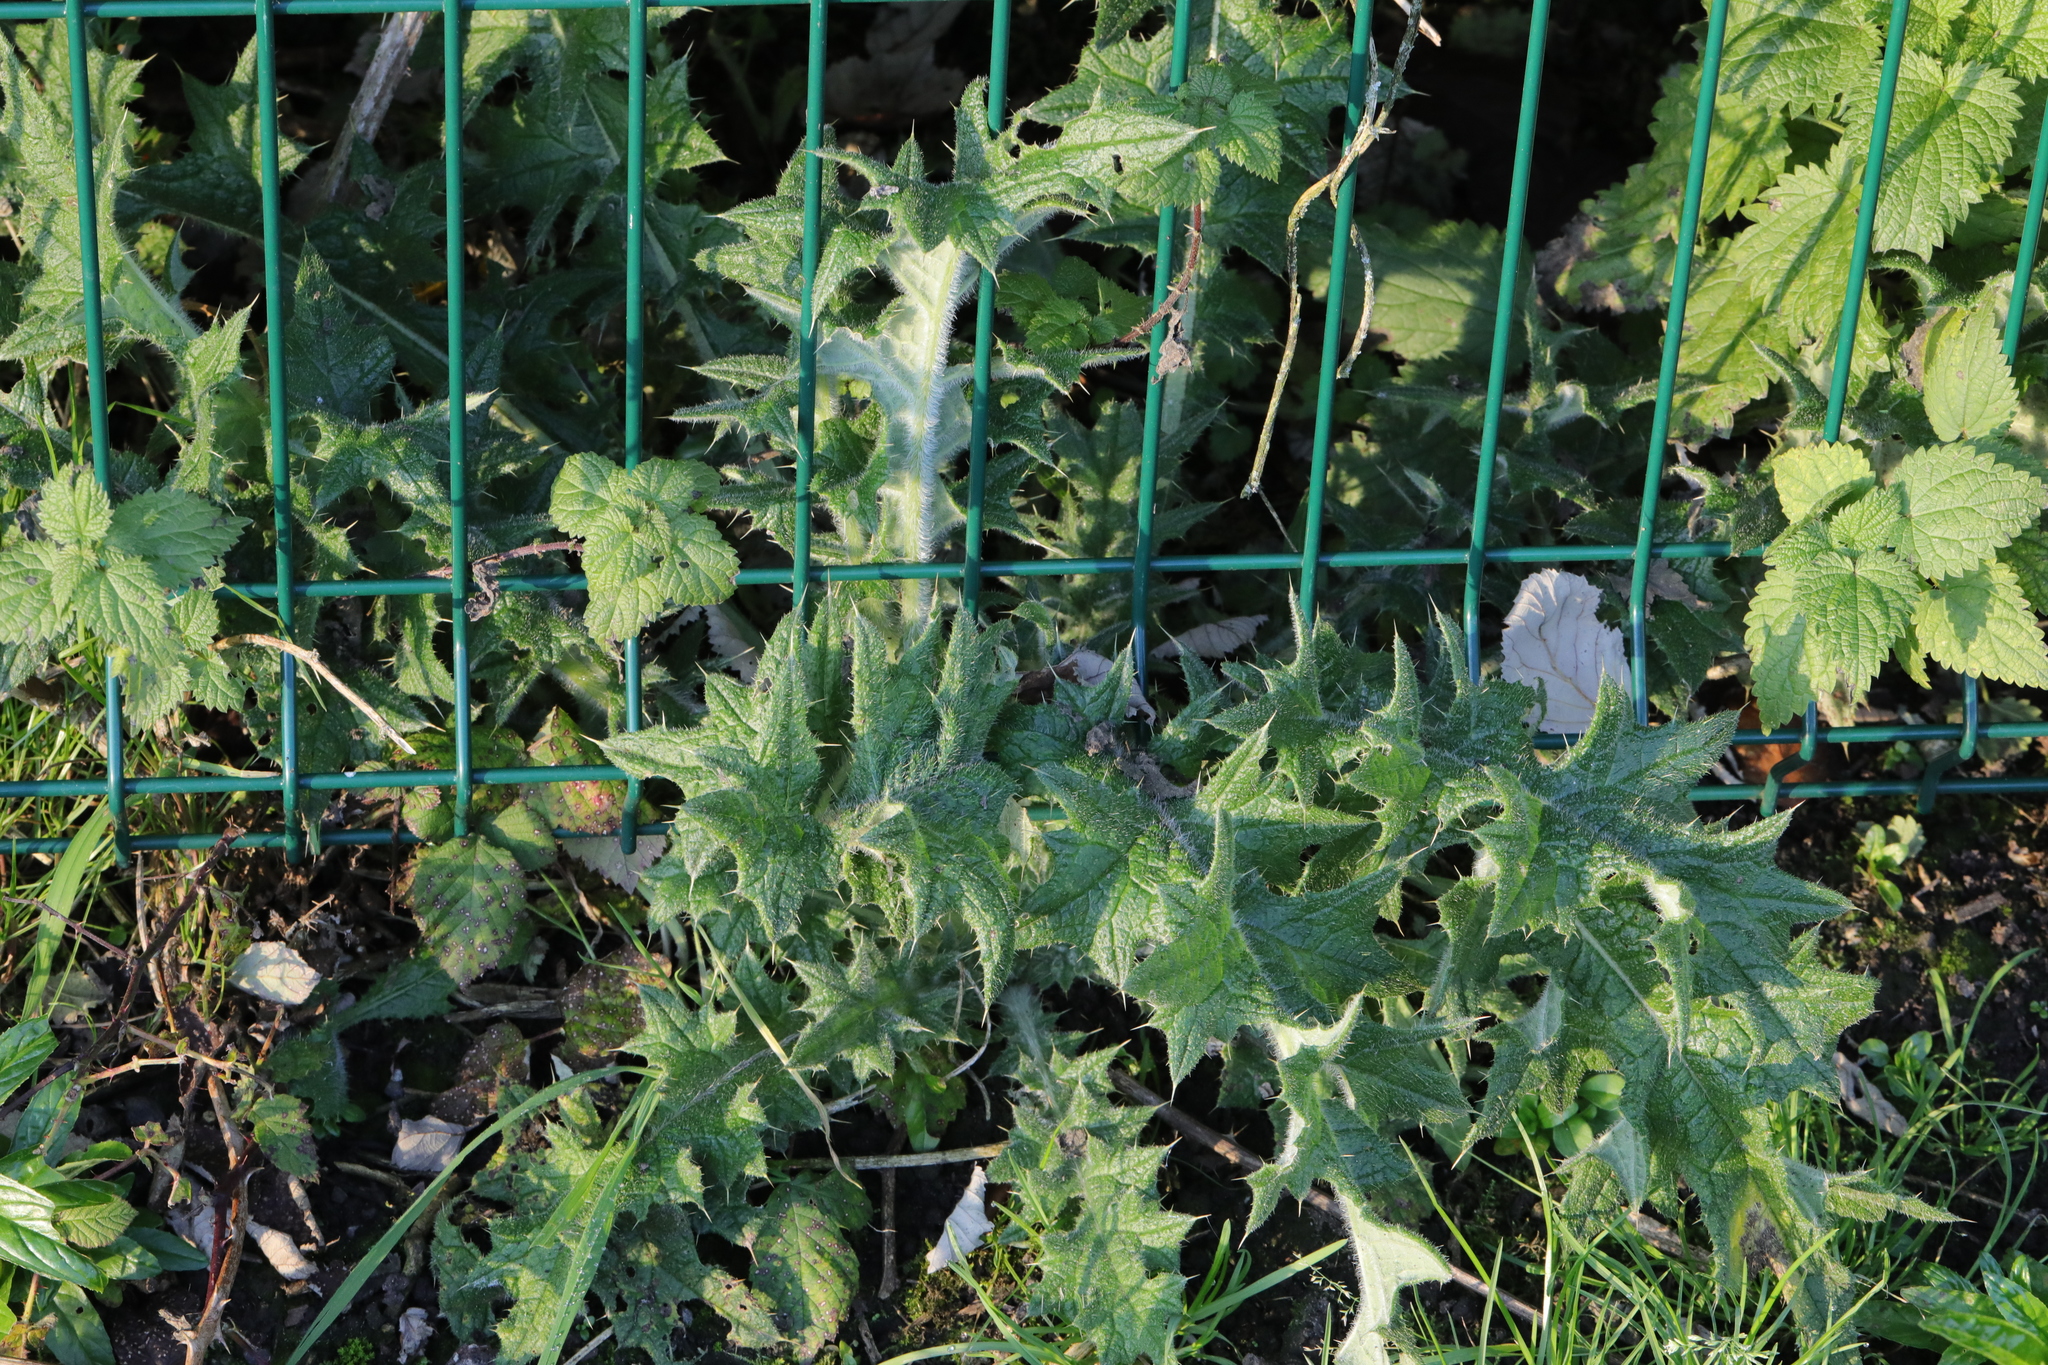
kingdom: Plantae
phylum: Tracheophyta
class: Magnoliopsida
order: Asterales
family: Asteraceae
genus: Cirsium
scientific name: Cirsium vulgare
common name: Bull thistle
